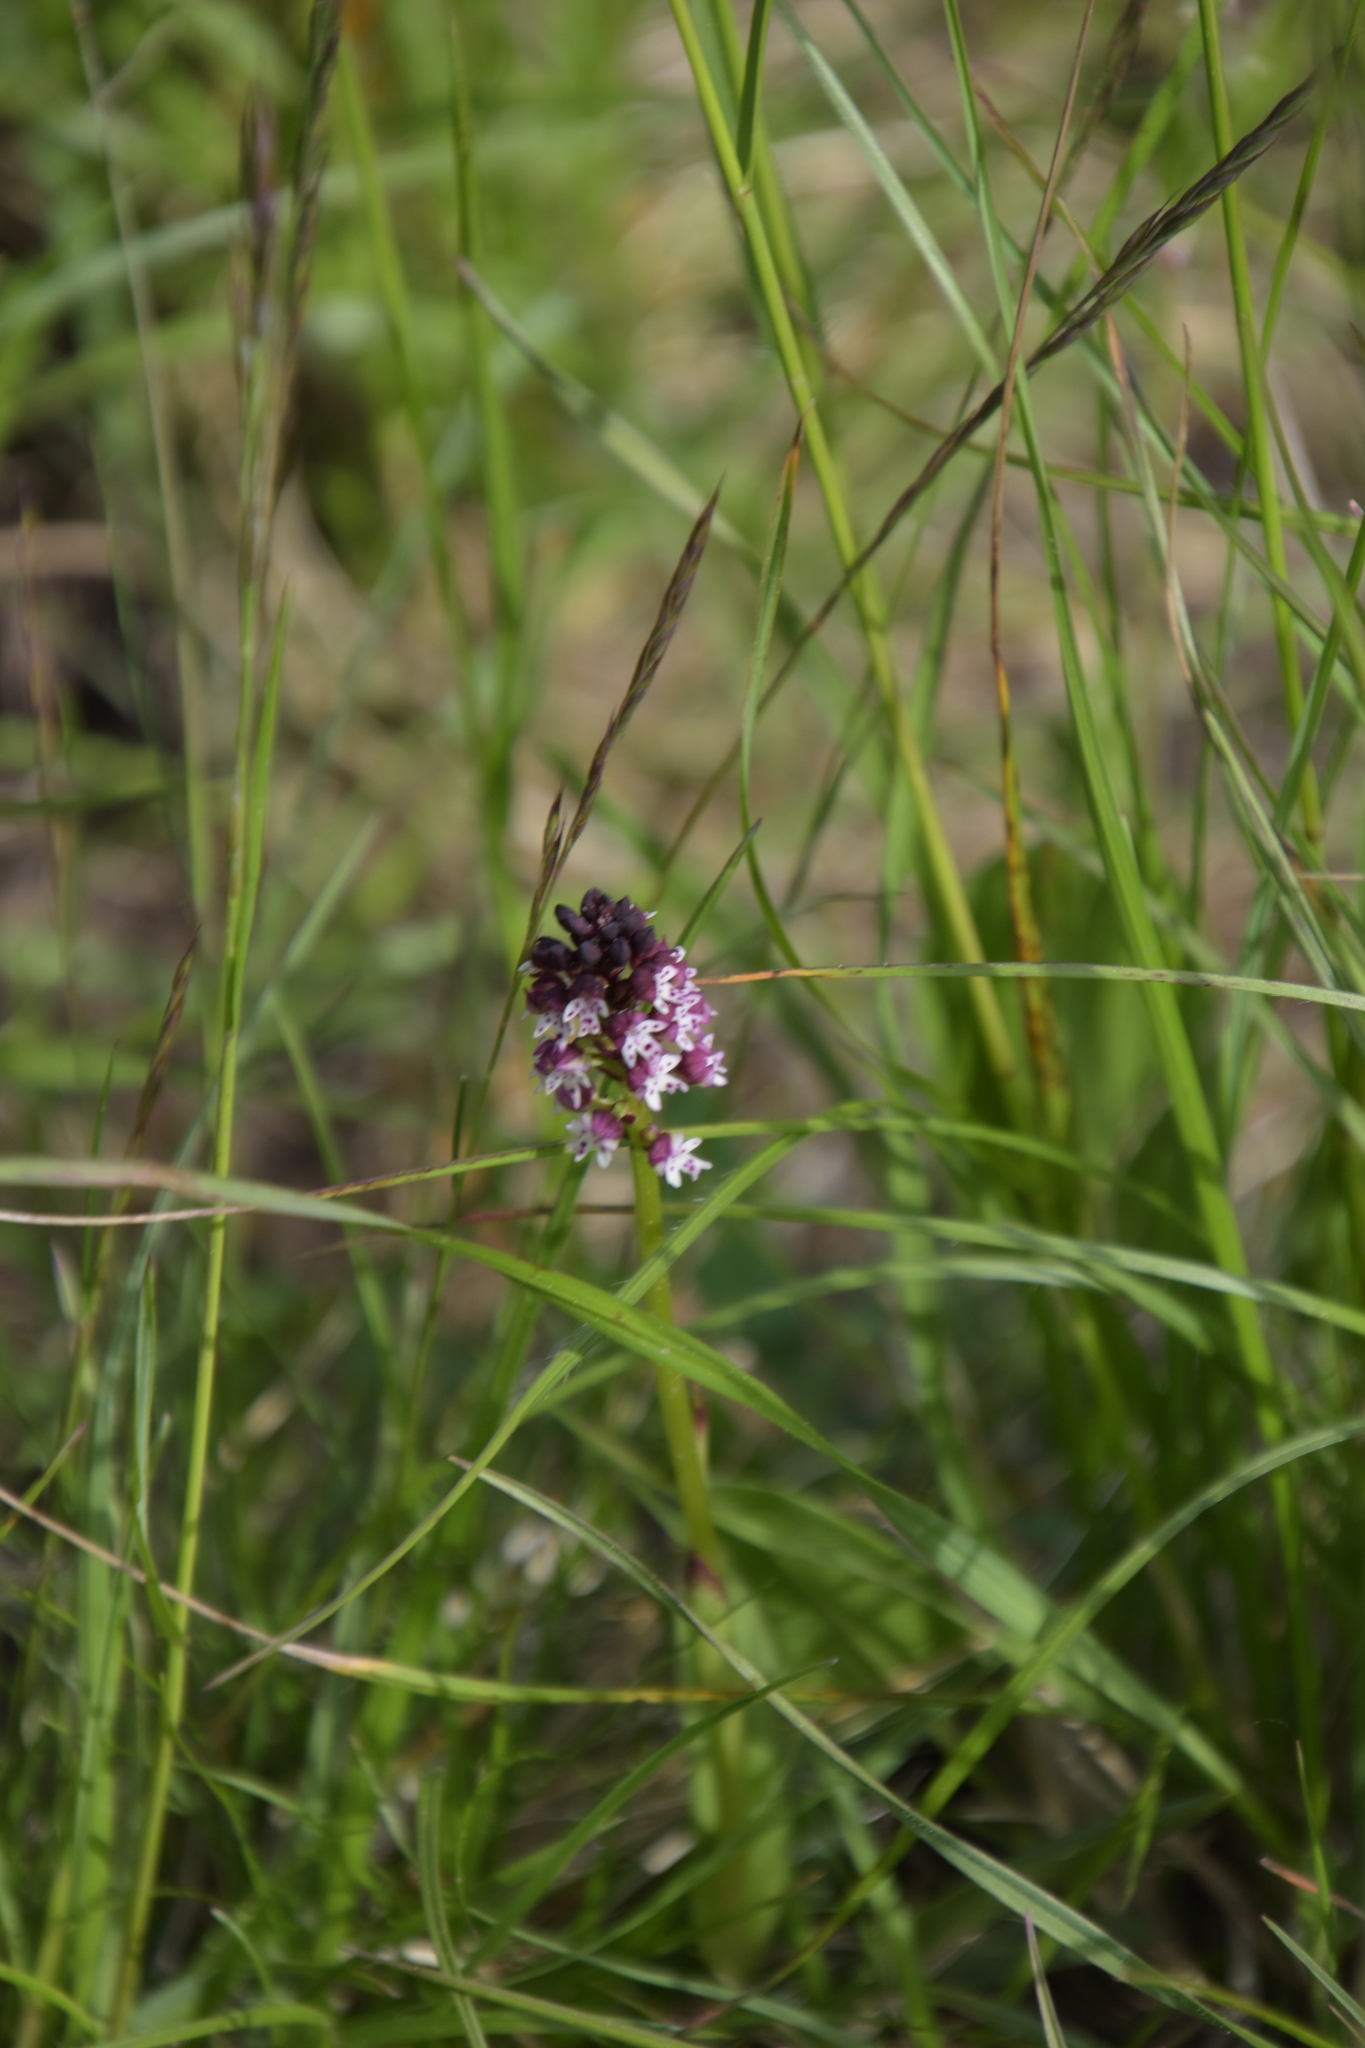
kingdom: Plantae
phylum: Tracheophyta
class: Liliopsida
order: Asparagales
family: Orchidaceae
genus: Neotinea
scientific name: Neotinea ustulata
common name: Burnt orchid
